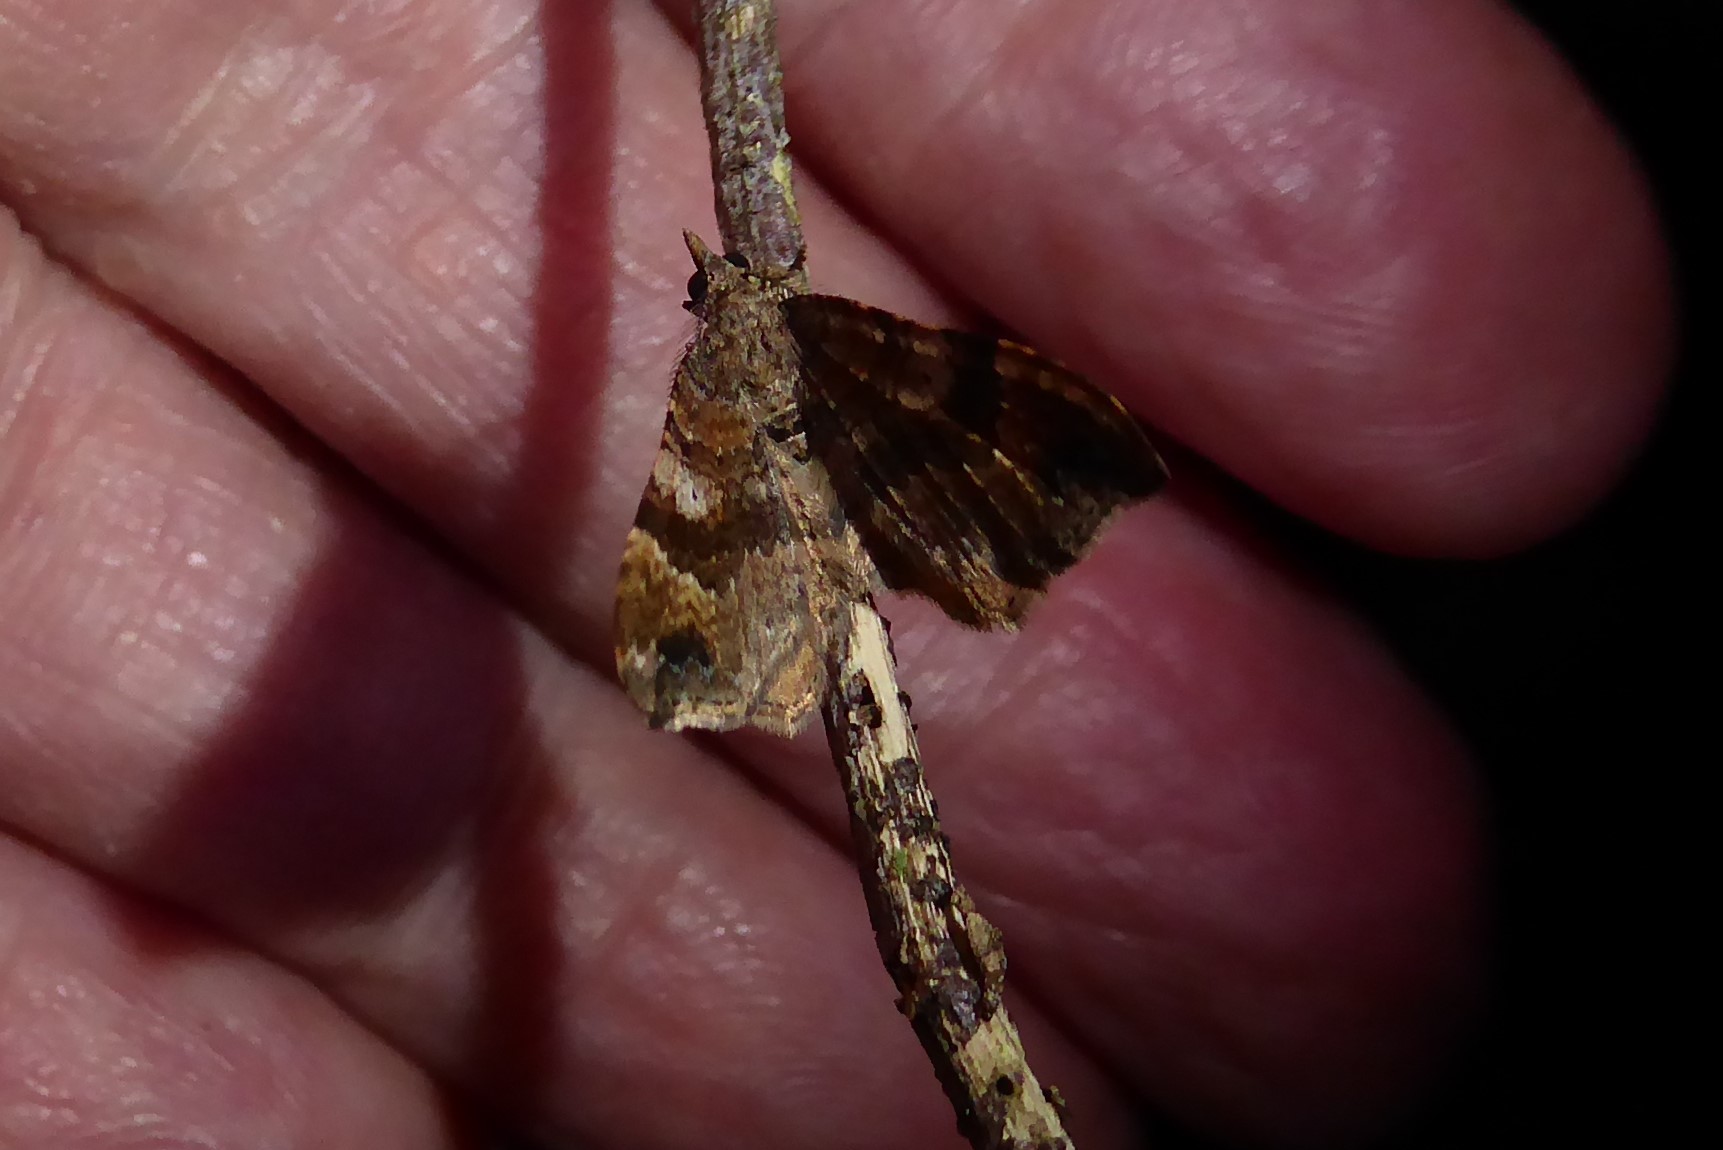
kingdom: Animalia
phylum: Arthropoda
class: Insecta
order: Lepidoptera
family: Geometridae
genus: Homodotis
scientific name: Homodotis megaspilata
